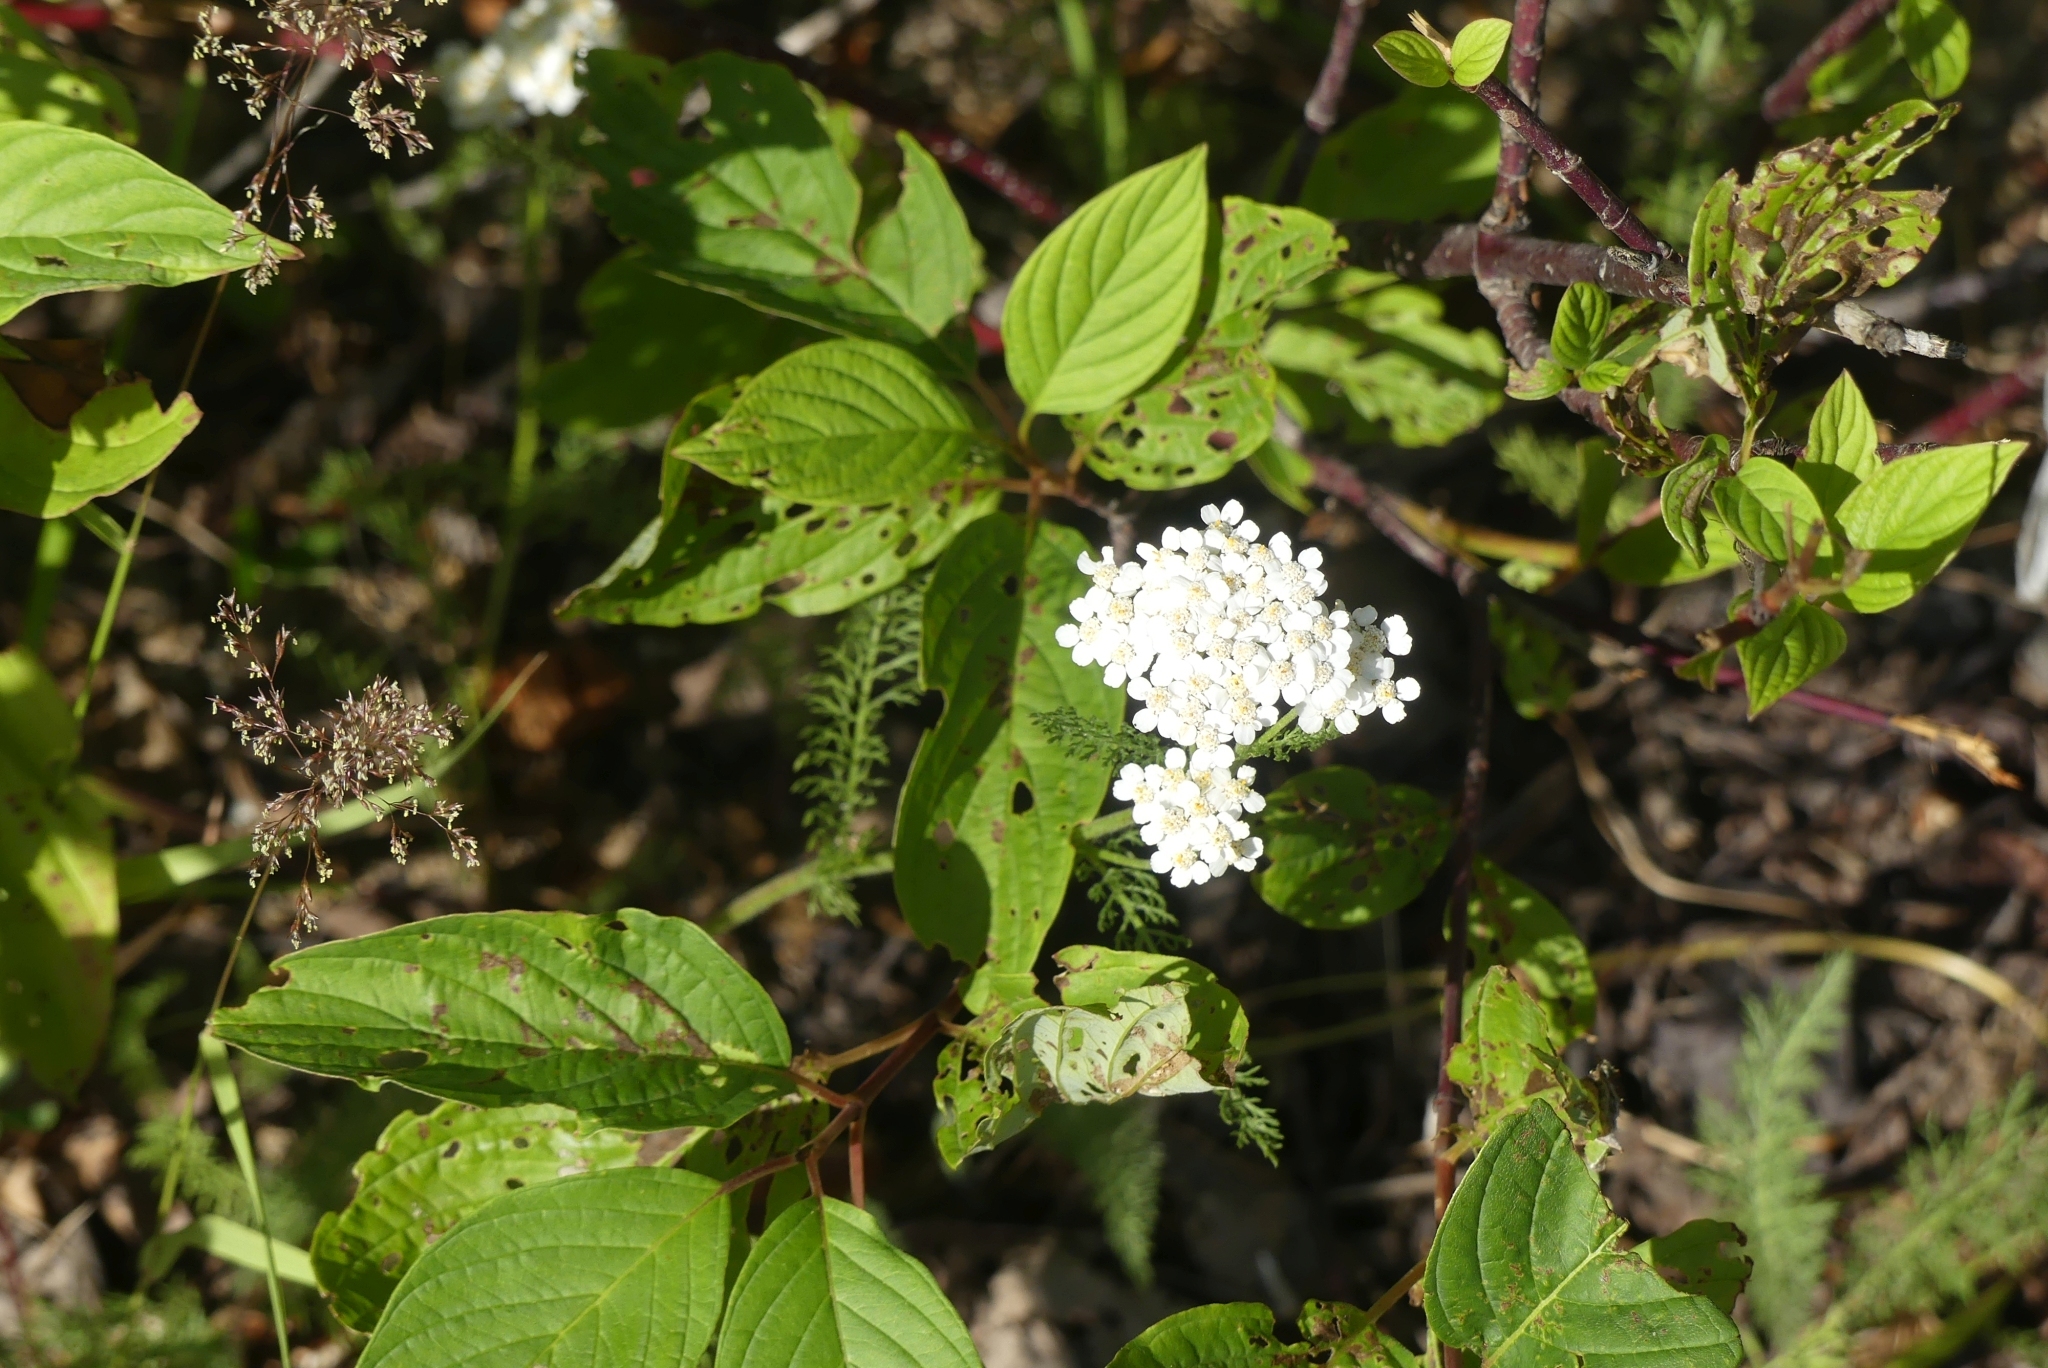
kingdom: Plantae
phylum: Tracheophyta
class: Magnoliopsida
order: Asterales
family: Asteraceae
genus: Achillea
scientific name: Achillea millefolium
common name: Yarrow
